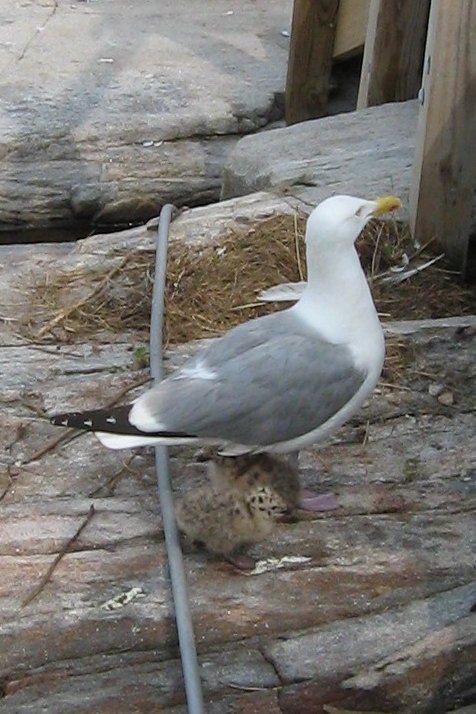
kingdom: Animalia
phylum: Chordata
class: Aves
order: Charadriiformes
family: Laridae
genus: Larus
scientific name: Larus argentatus
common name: Herring gull
